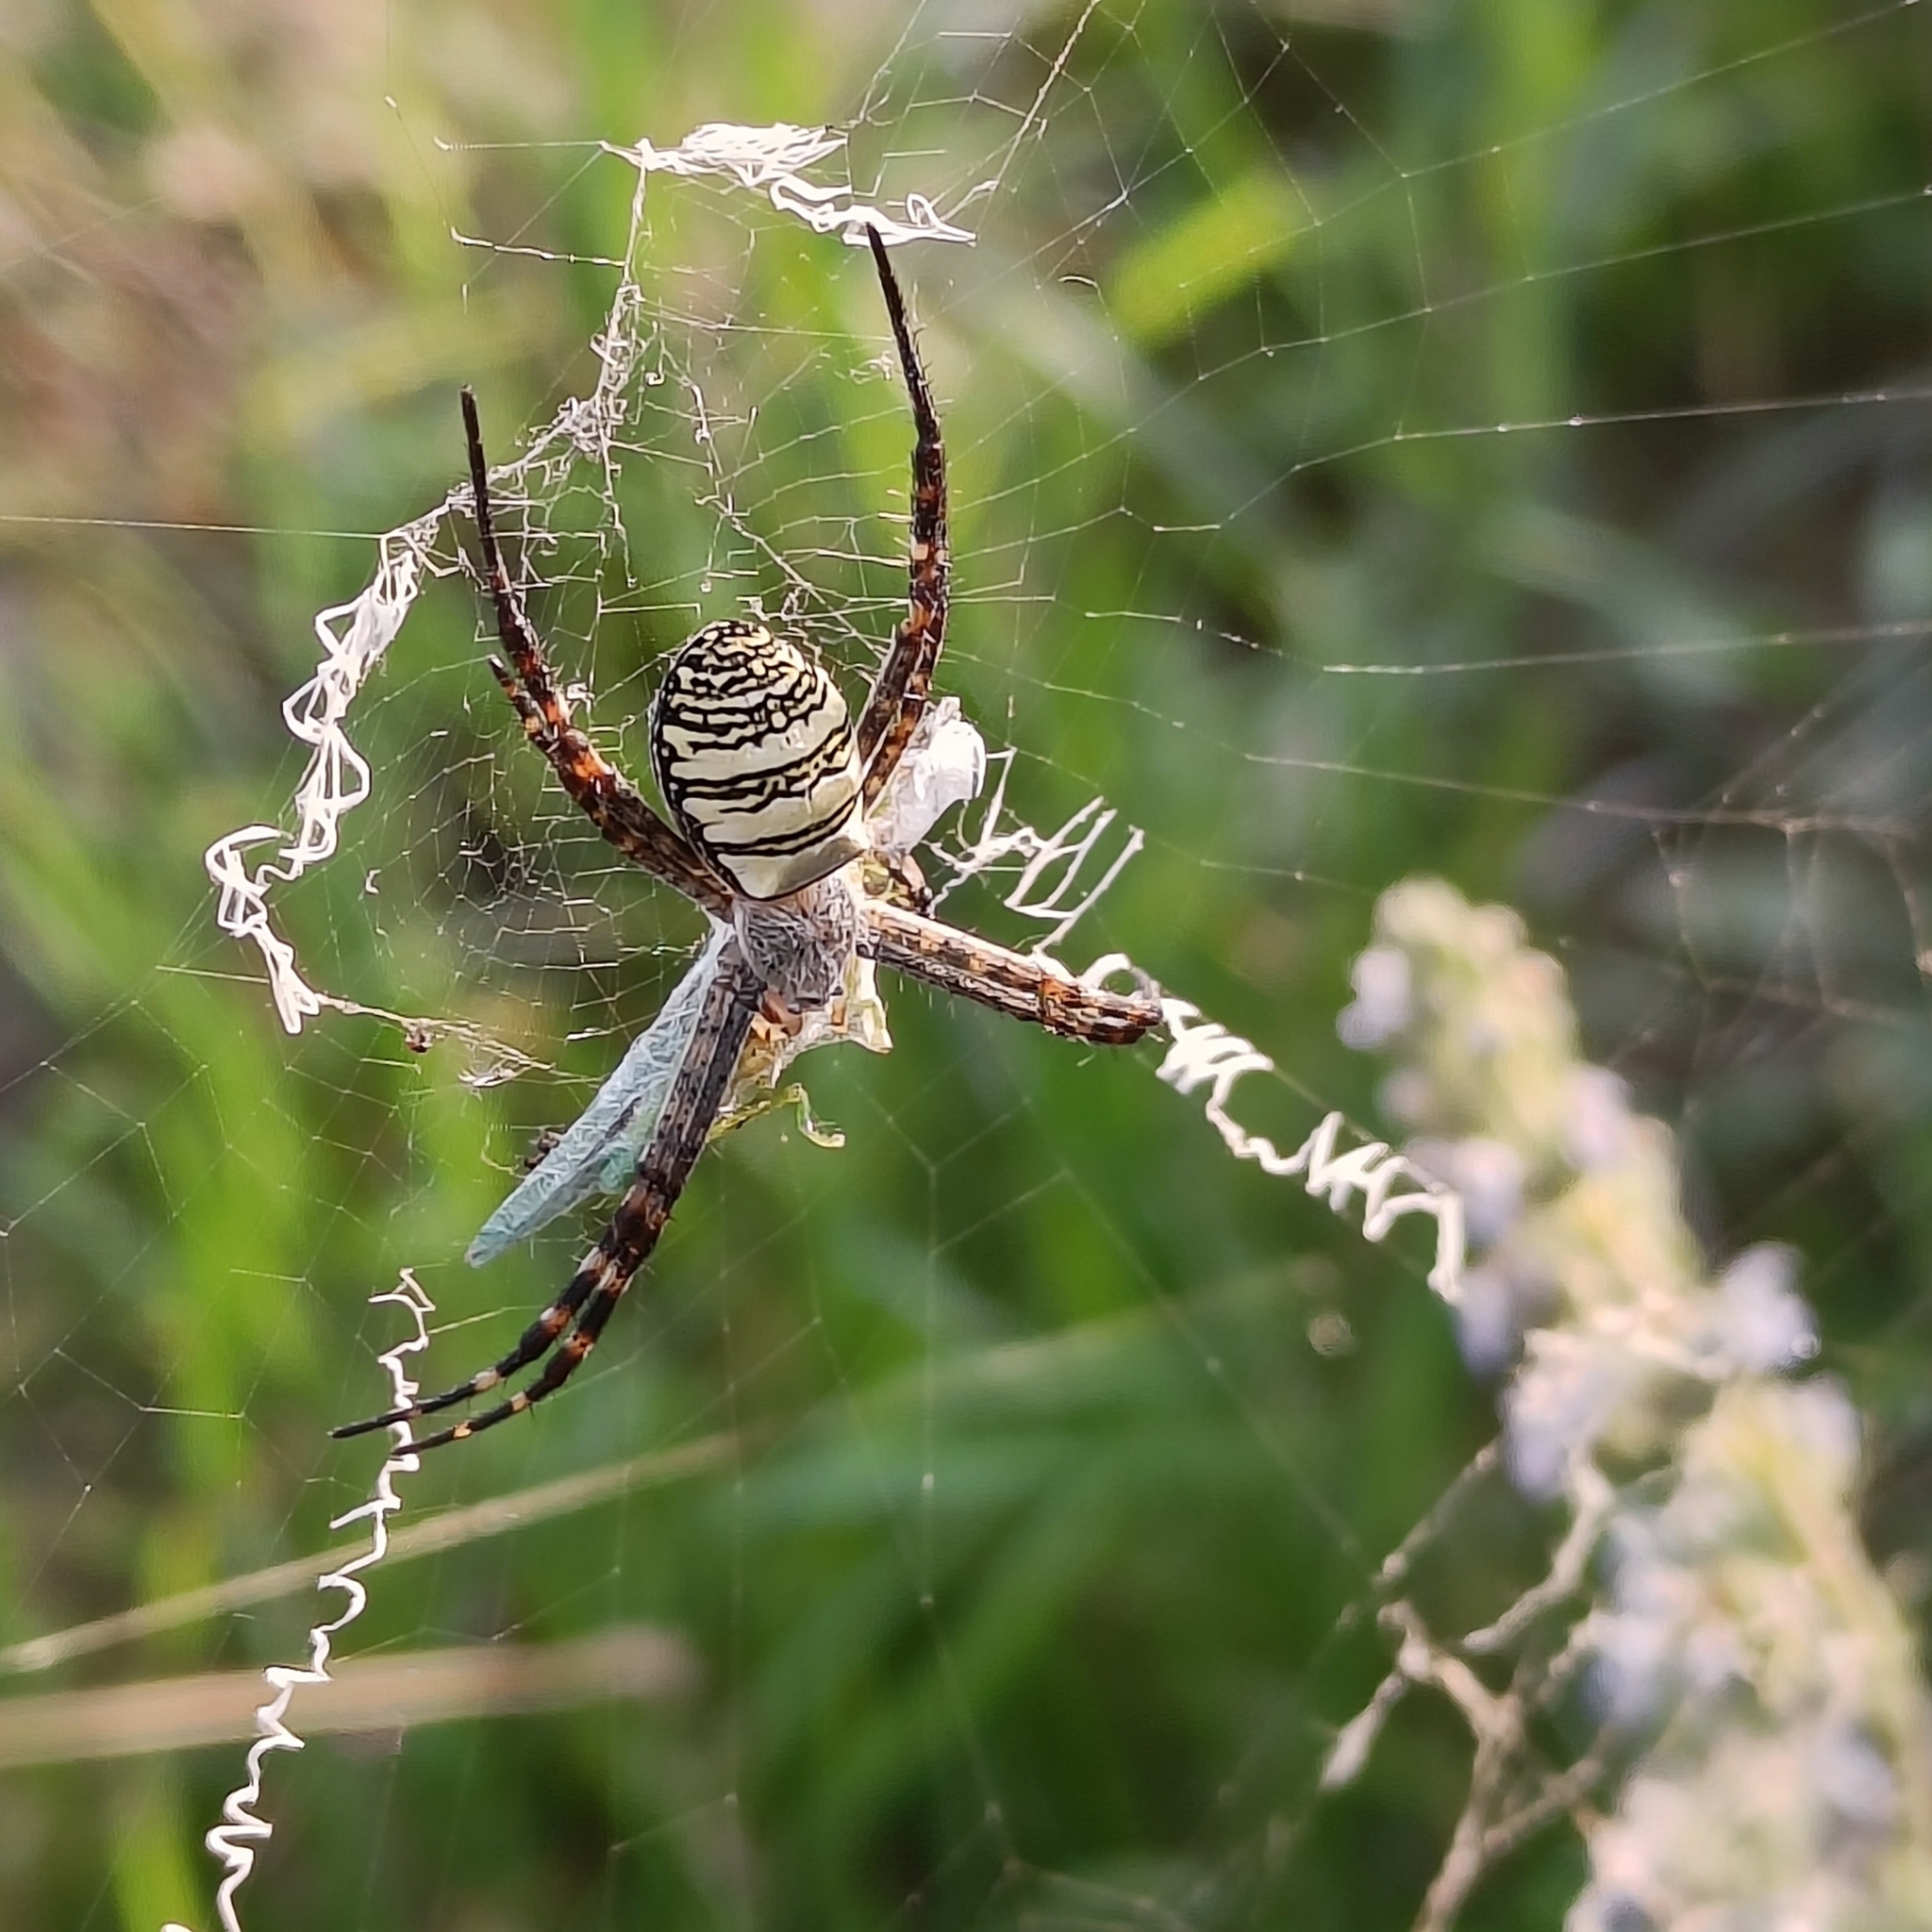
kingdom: Animalia
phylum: Arthropoda
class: Arachnida
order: Araneae
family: Araneidae
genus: Argiope
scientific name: Argiope aemula
